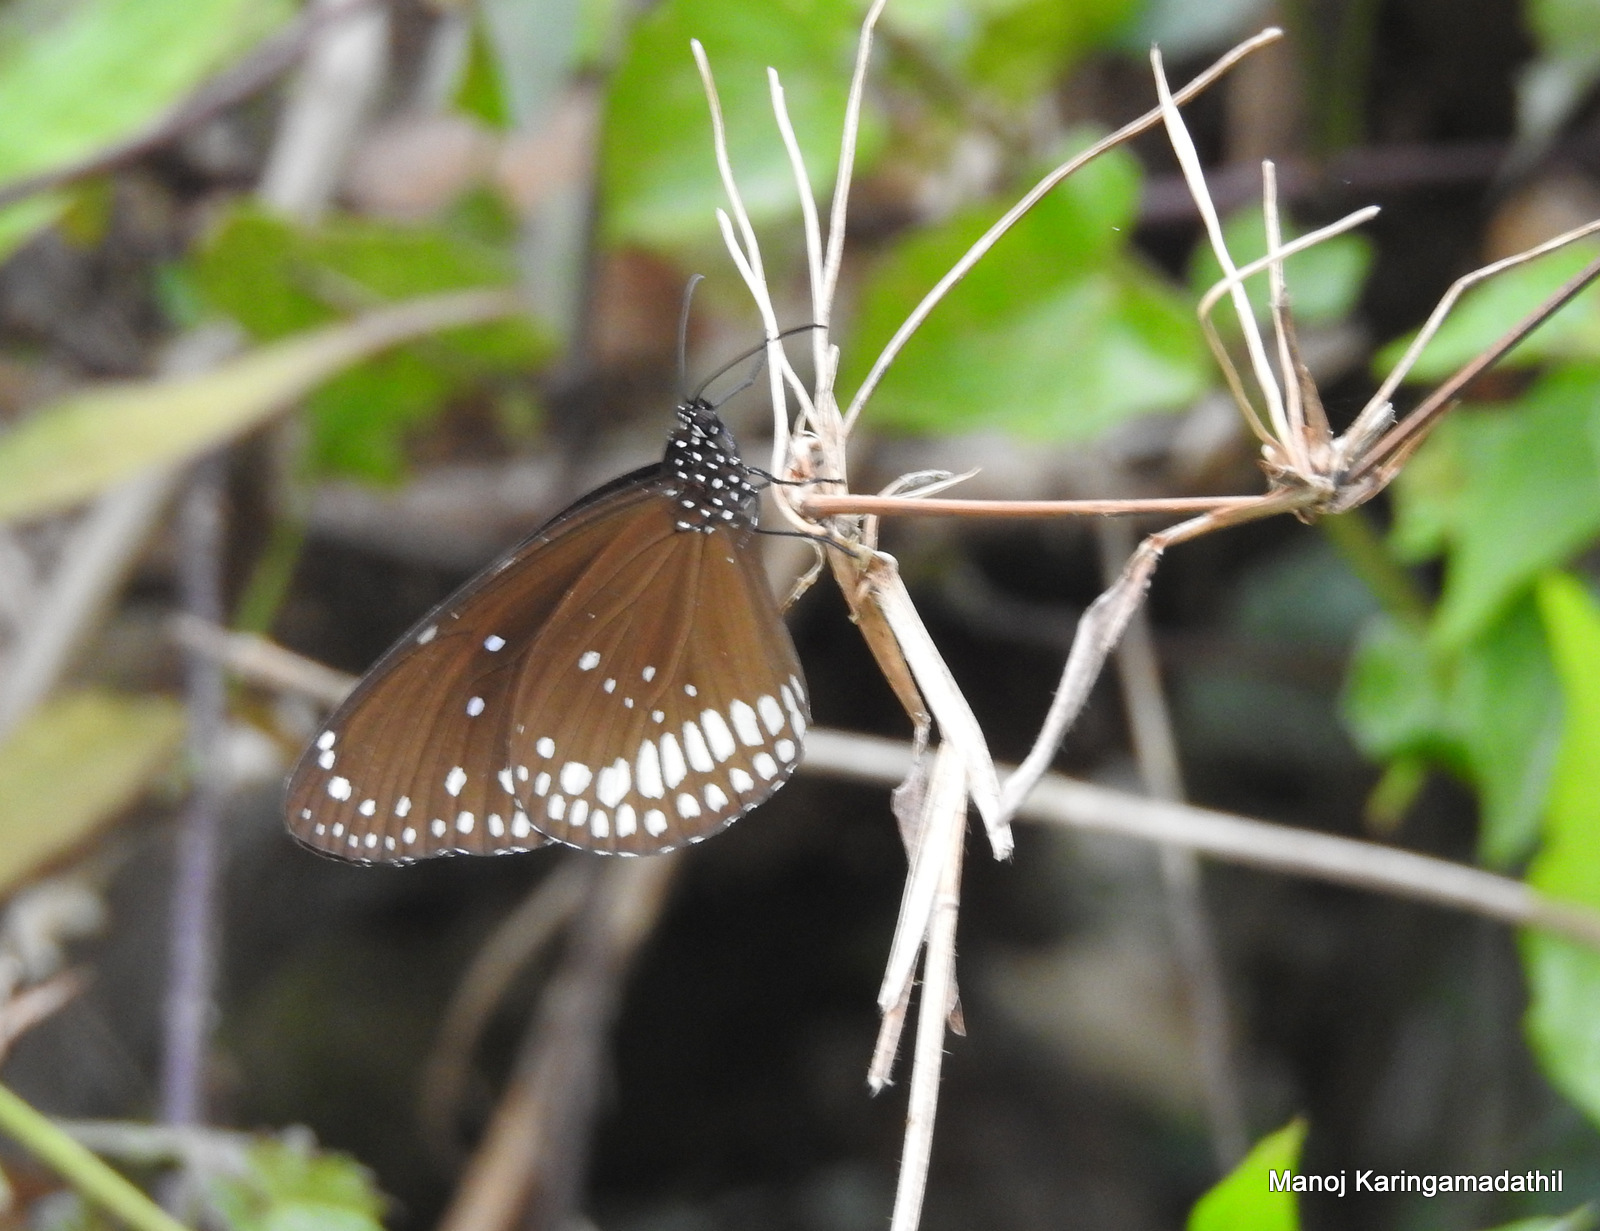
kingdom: Animalia
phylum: Arthropoda
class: Insecta
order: Lepidoptera
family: Nymphalidae
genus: Euploea
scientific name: Euploea core
